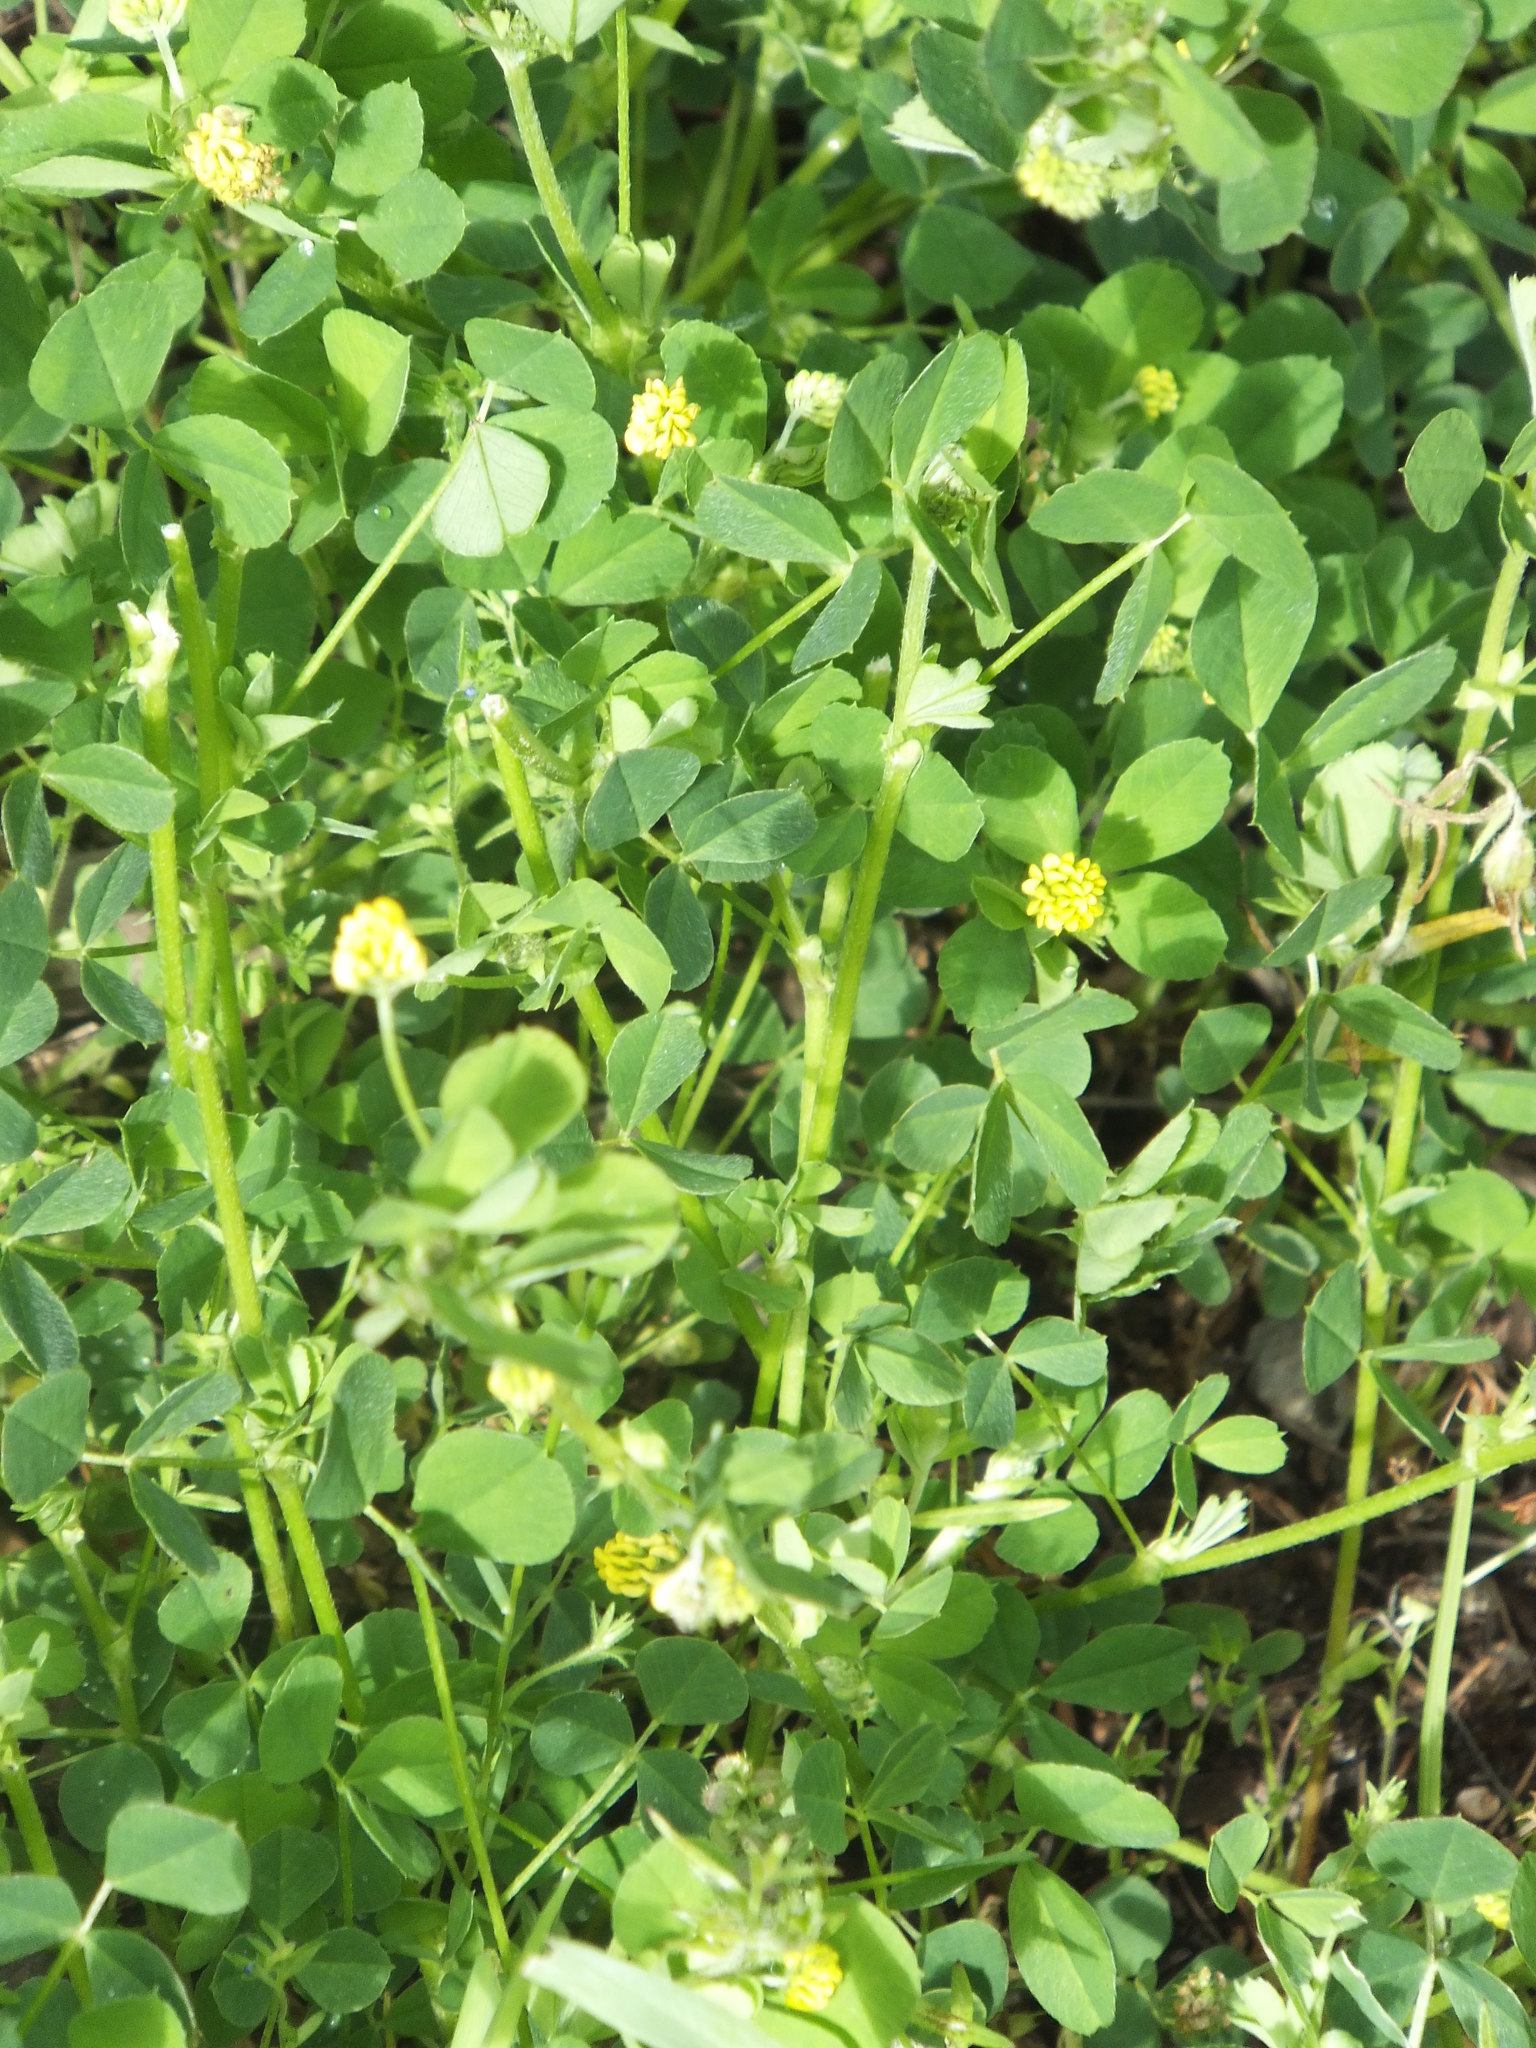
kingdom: Plantae
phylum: Tracheophyta
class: Magnoliopsida
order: Fabales
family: Fabaceae
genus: Medicago
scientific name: Medicago lupulina
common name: Black medick
